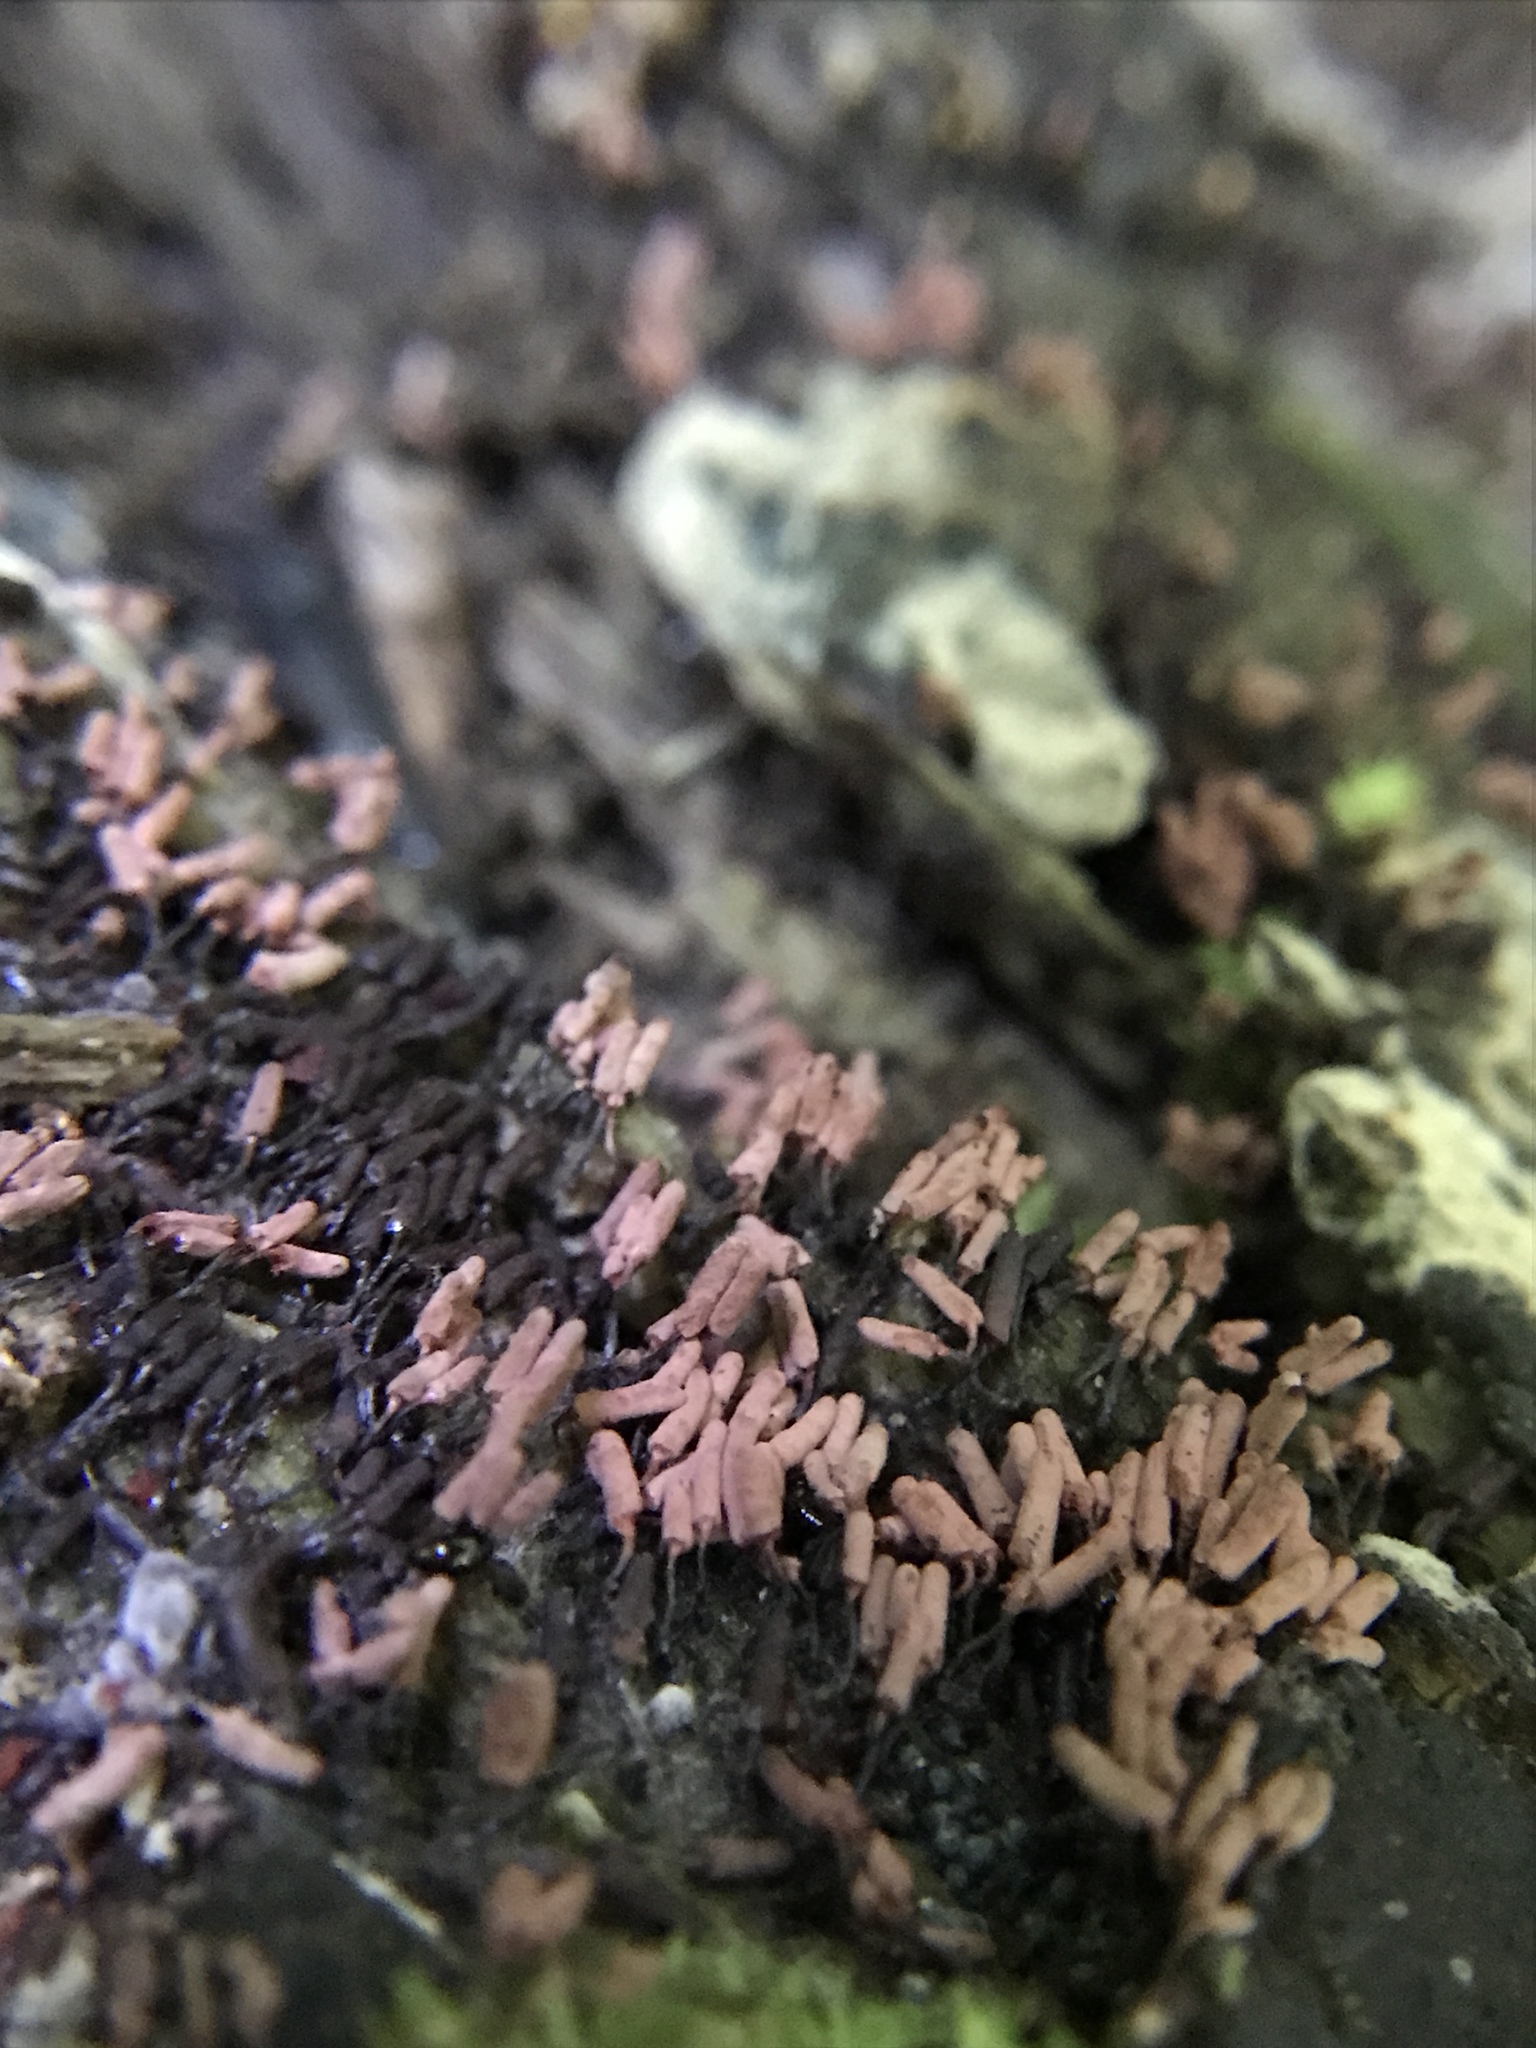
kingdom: Protozoa
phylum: Mycetozoa
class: Myxomycetes
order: Trichiales
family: Arcyriaceae
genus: Arcyria
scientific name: Arcyria cinerea
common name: White carnival candy slime mold
